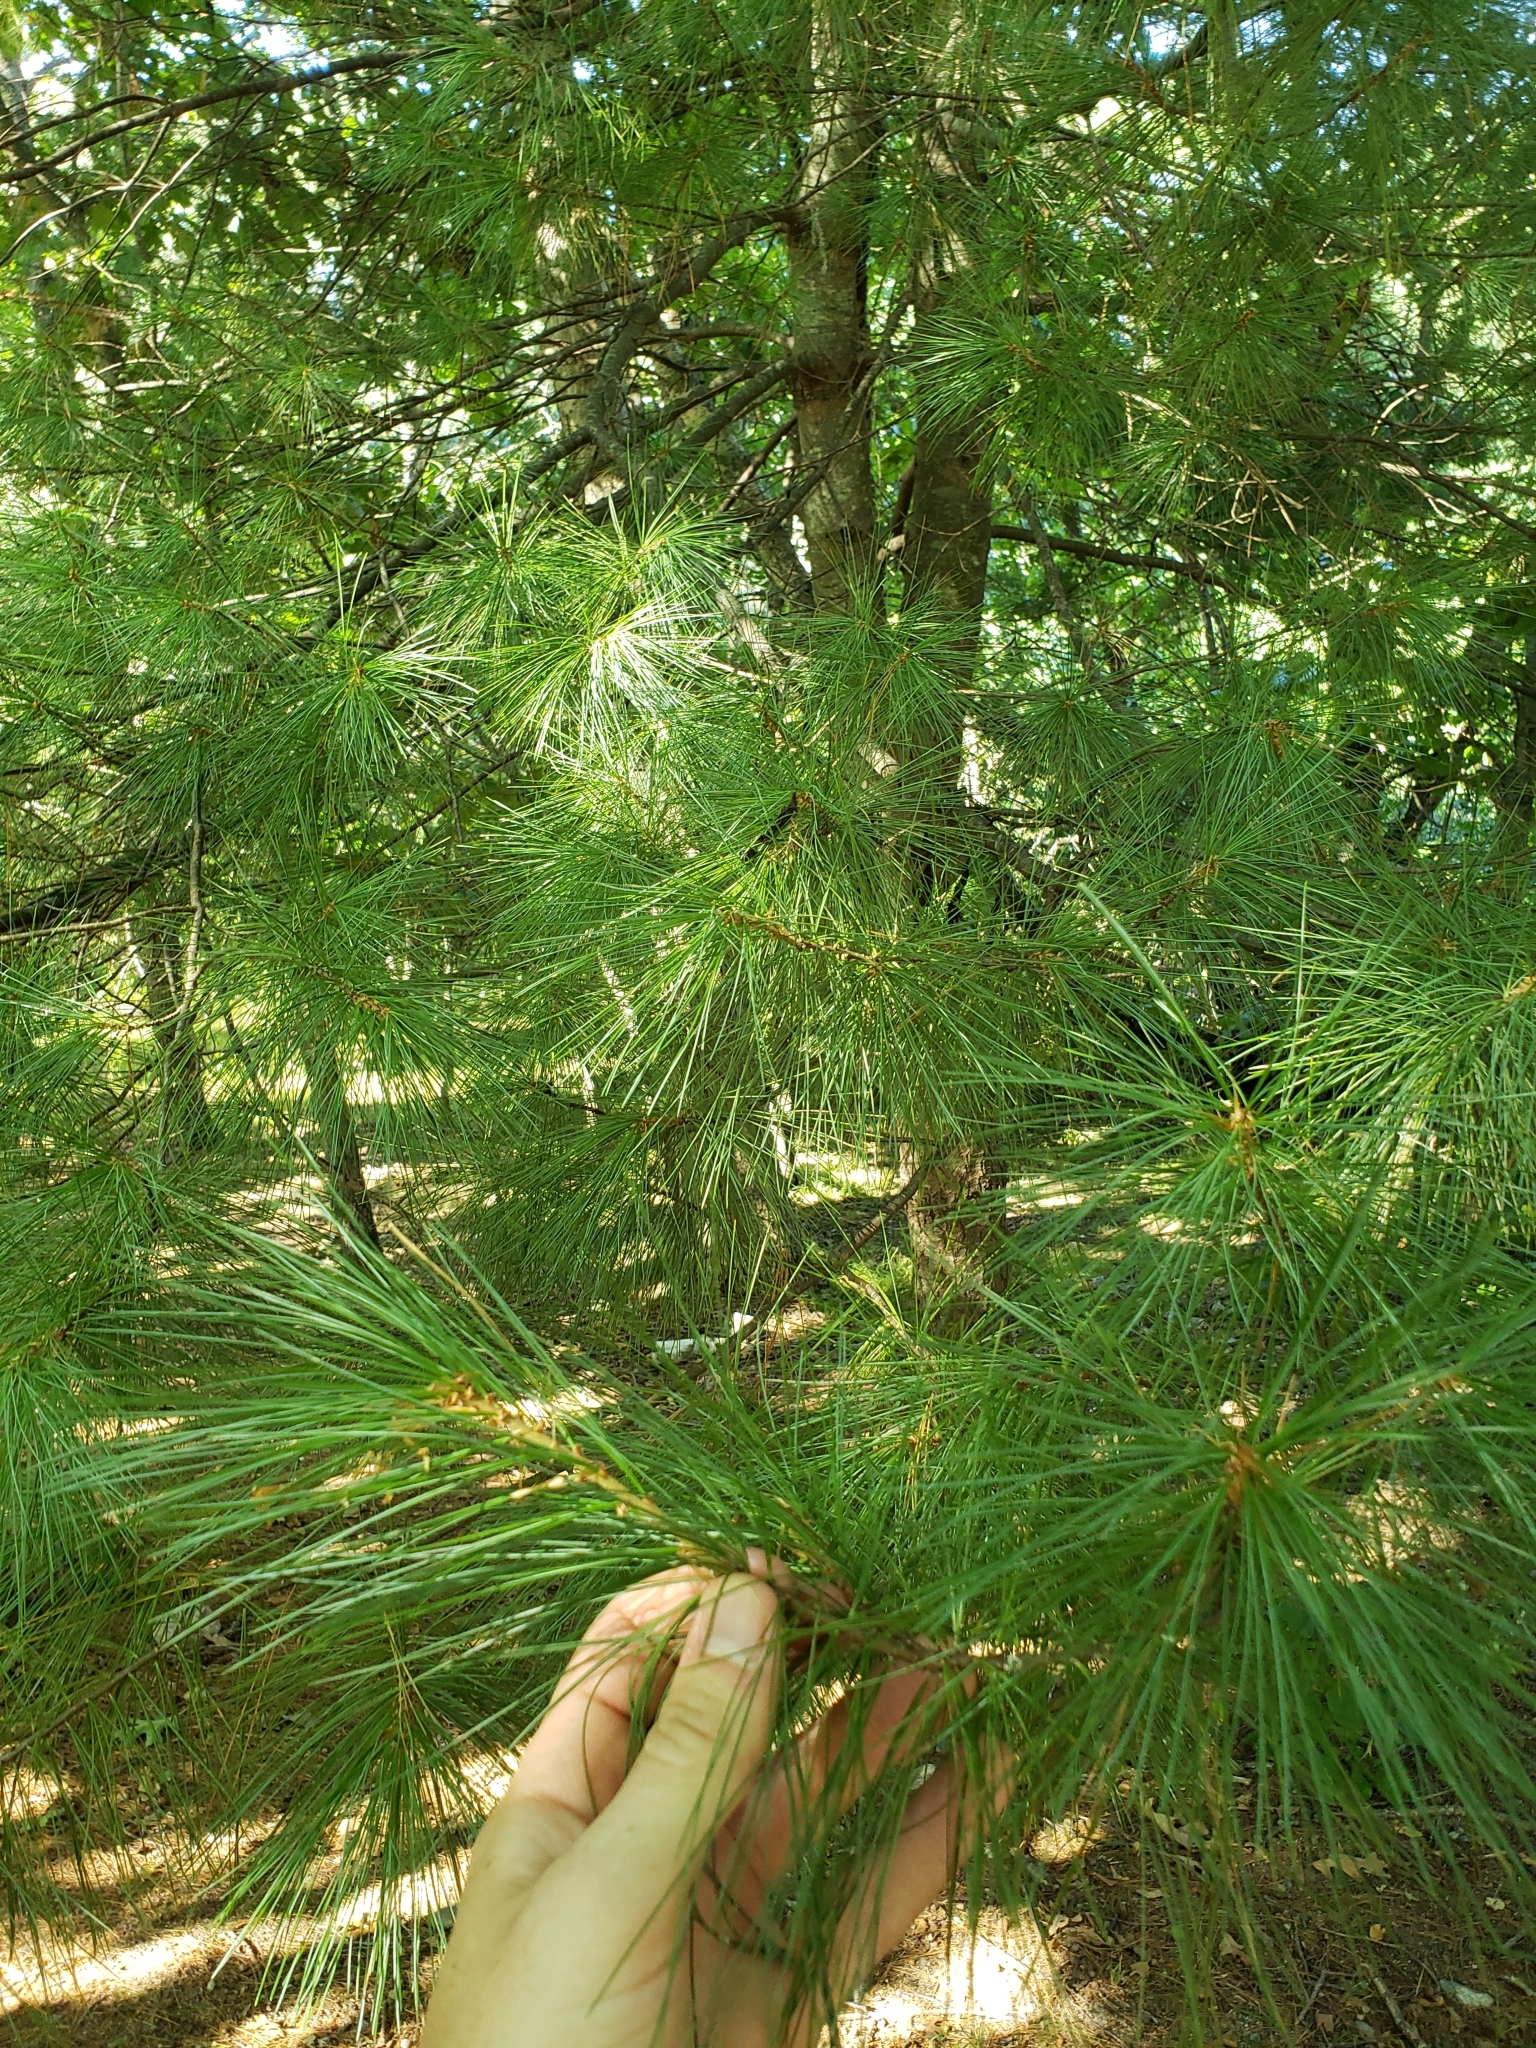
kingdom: Plantae
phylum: Tracheophyta
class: Pinopsida
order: Pinales
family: Pinaceae
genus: Pinus
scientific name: Pinus strobus
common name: Weymouth pine
